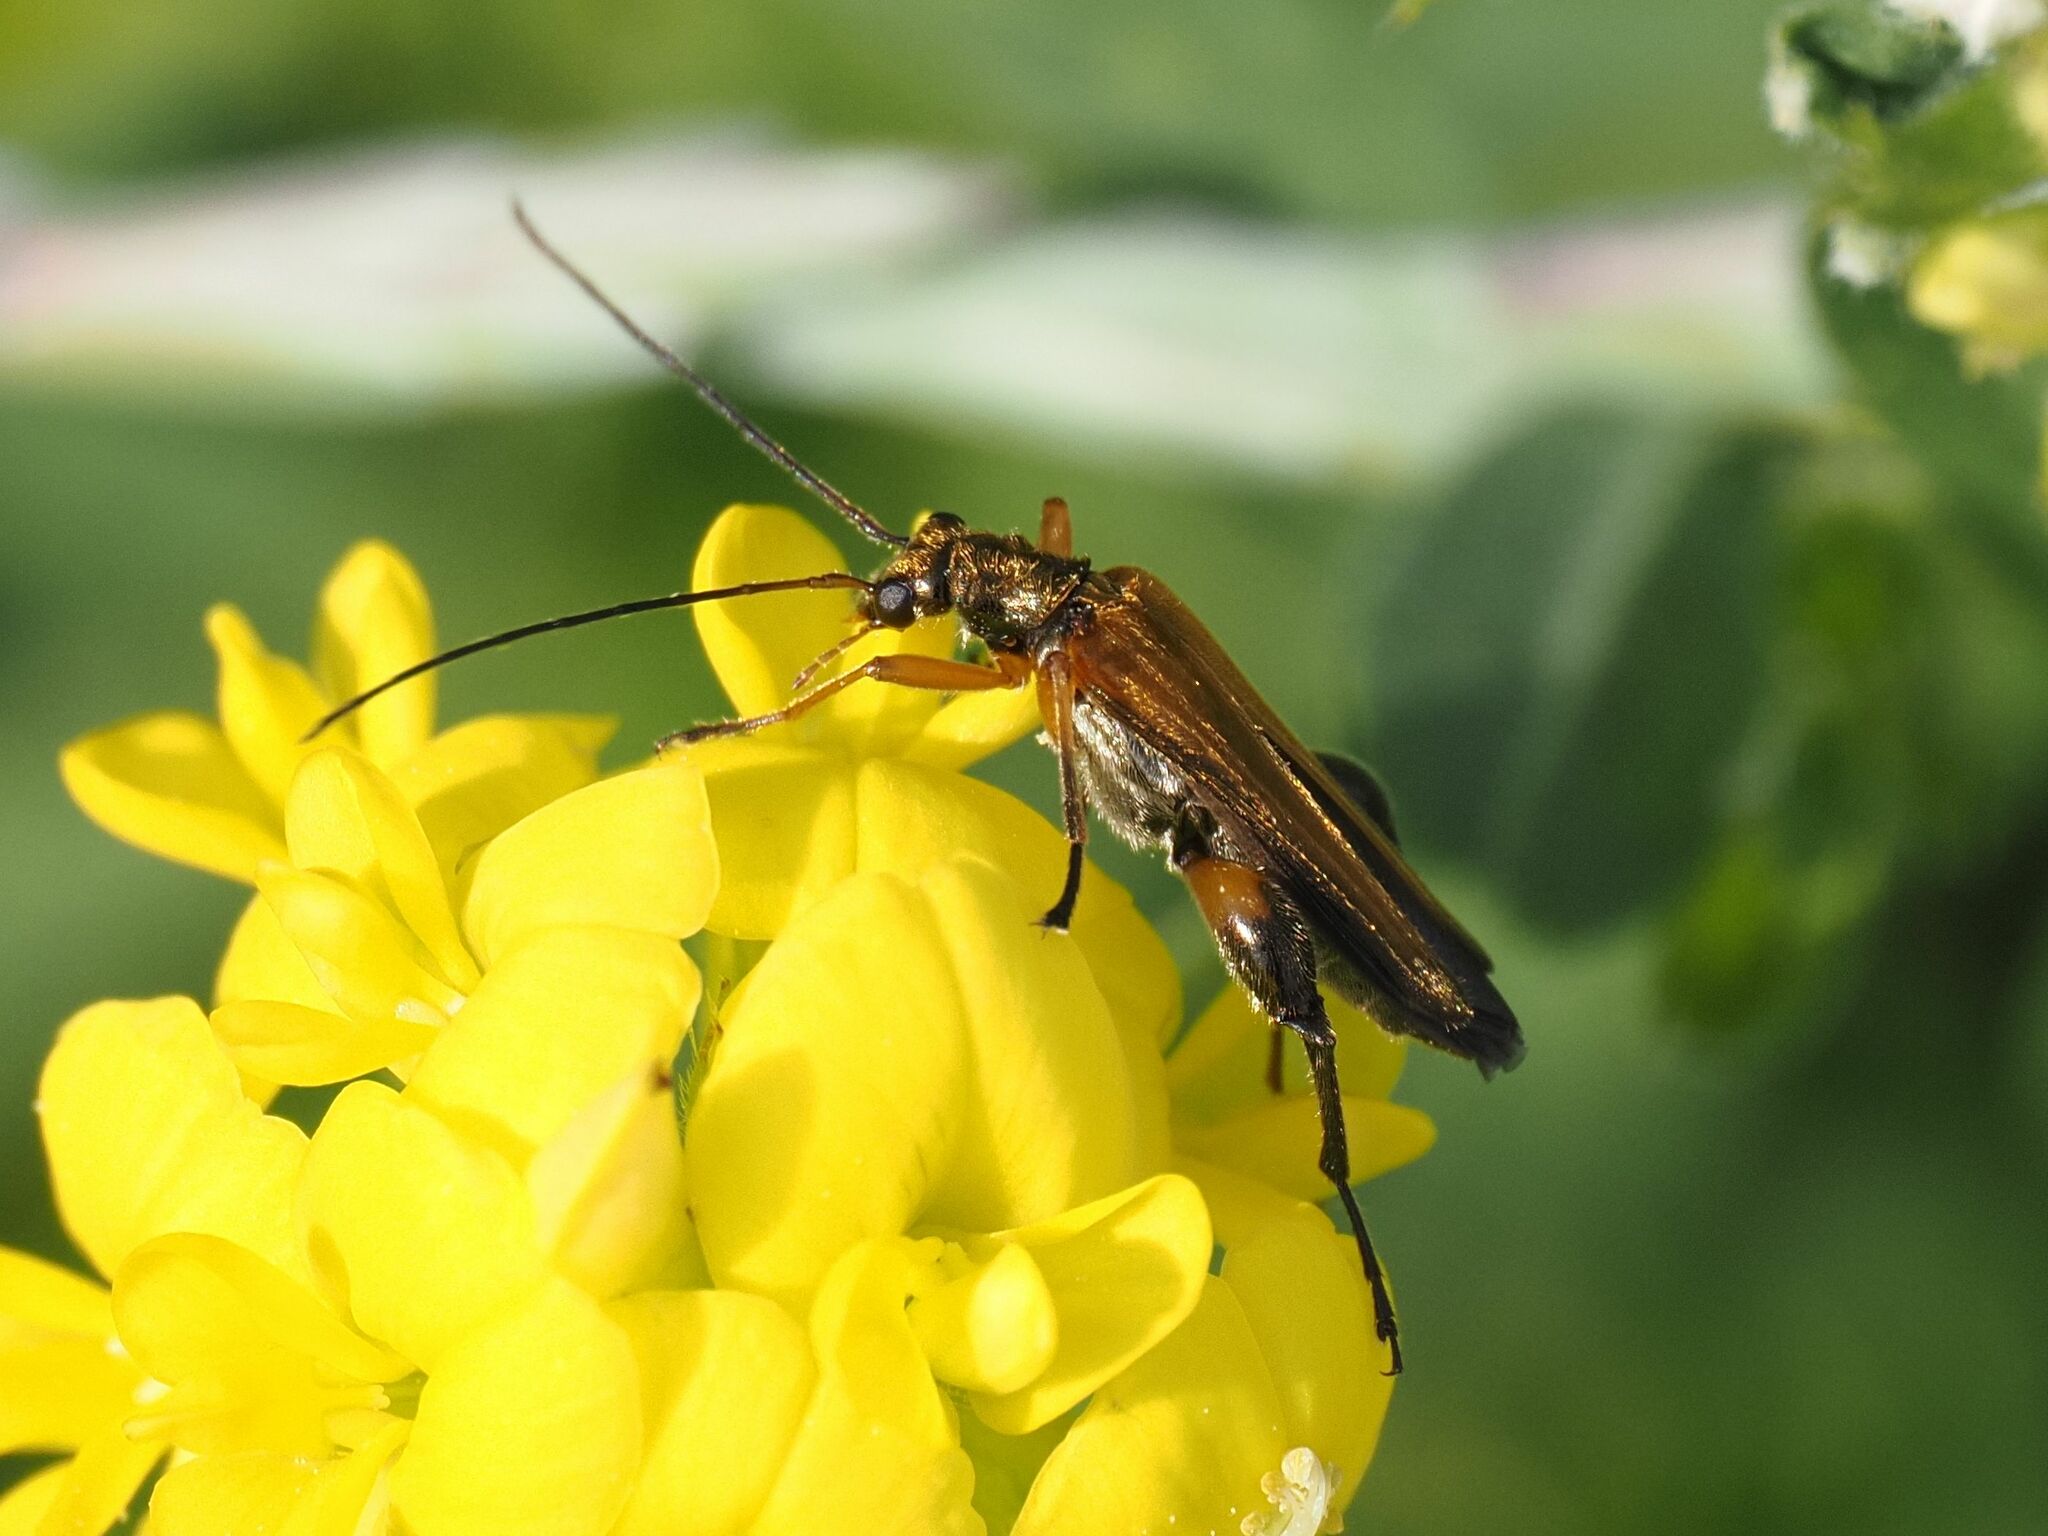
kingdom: Animalia
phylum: Arthropoda
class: Insecta
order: Coleoptera
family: Oedemeridae
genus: Oedemera
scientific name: Oedemera podagrariae
